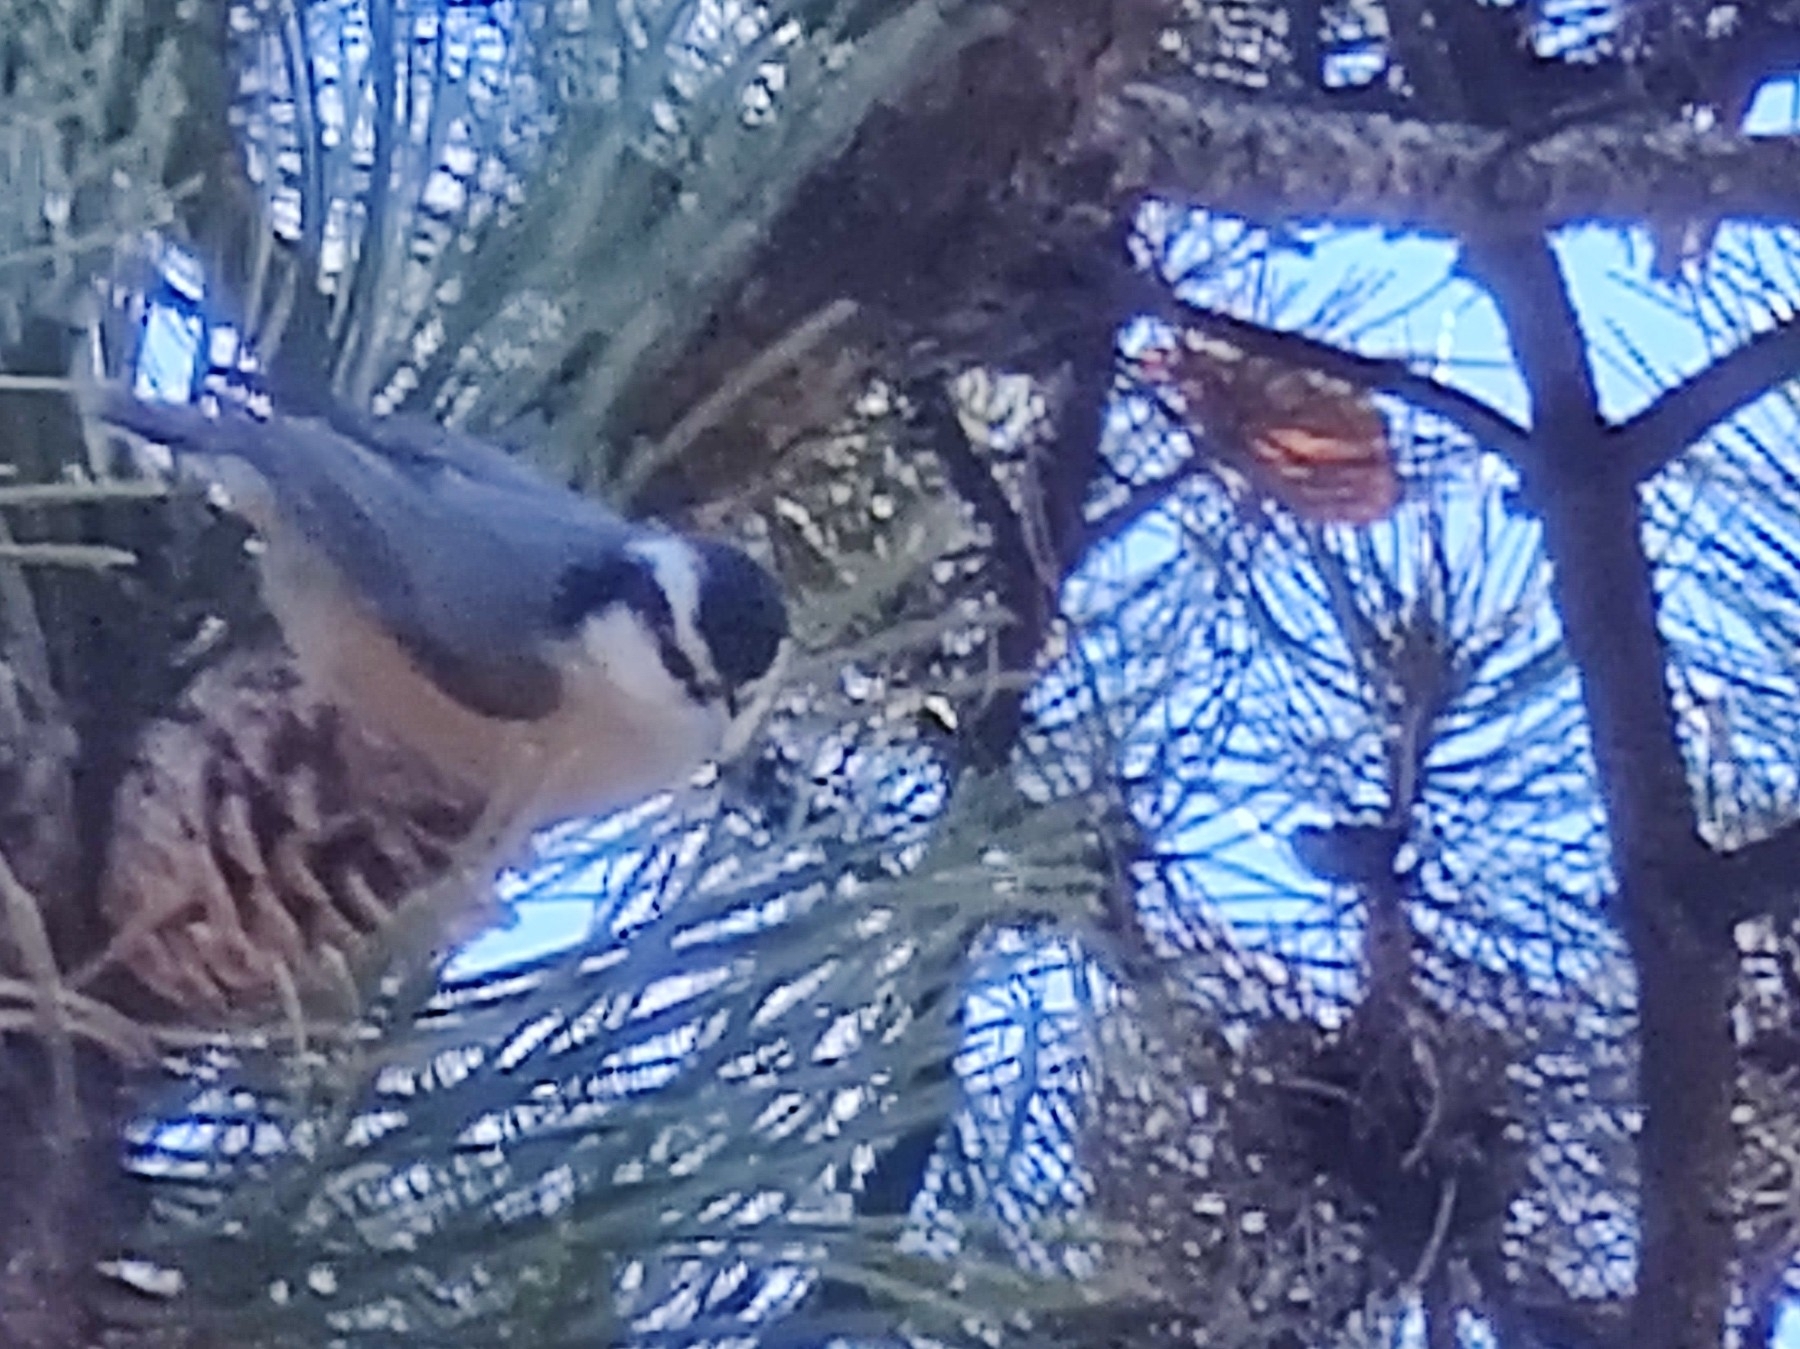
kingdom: Animalia
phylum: Chordata
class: Aves
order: Passeriformes
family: Sittidae
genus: Sitta
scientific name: Sitta canadensis
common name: Red-breasted nuthatch
